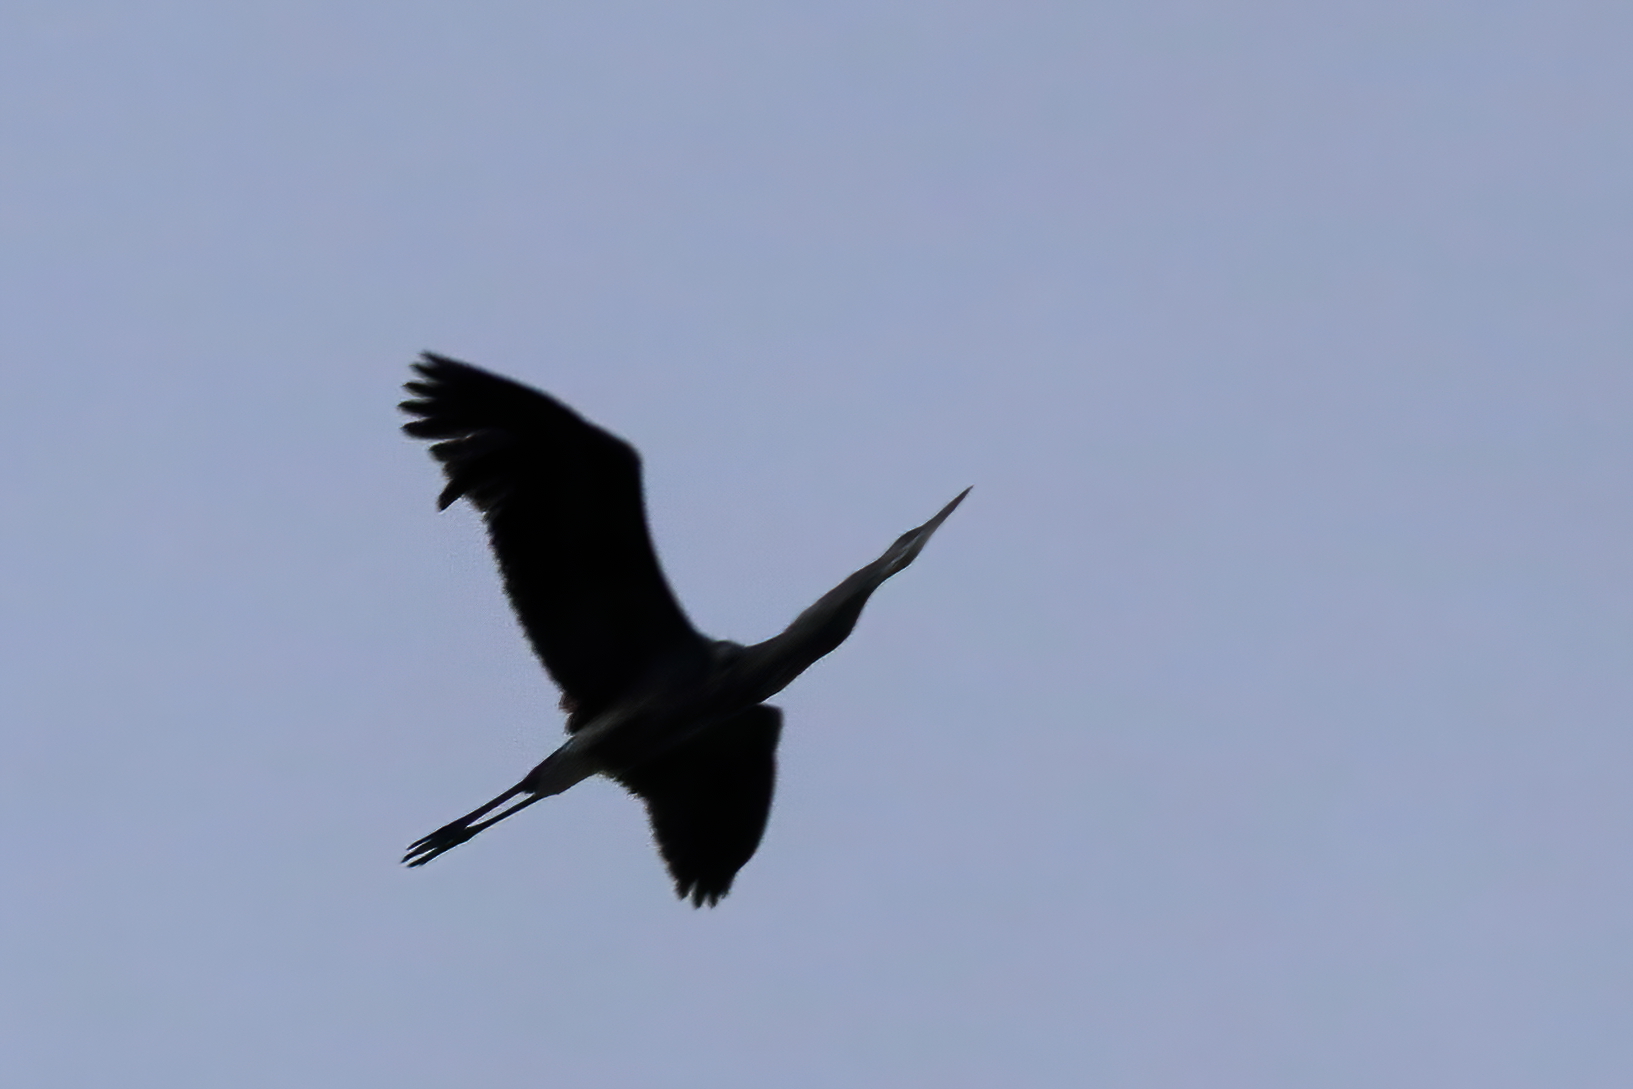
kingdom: Animalia
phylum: Chordata
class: Aves
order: Pelecaniformes
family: Ardeidae
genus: Ardea
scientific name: Ardea herodias
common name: Great blue heron
